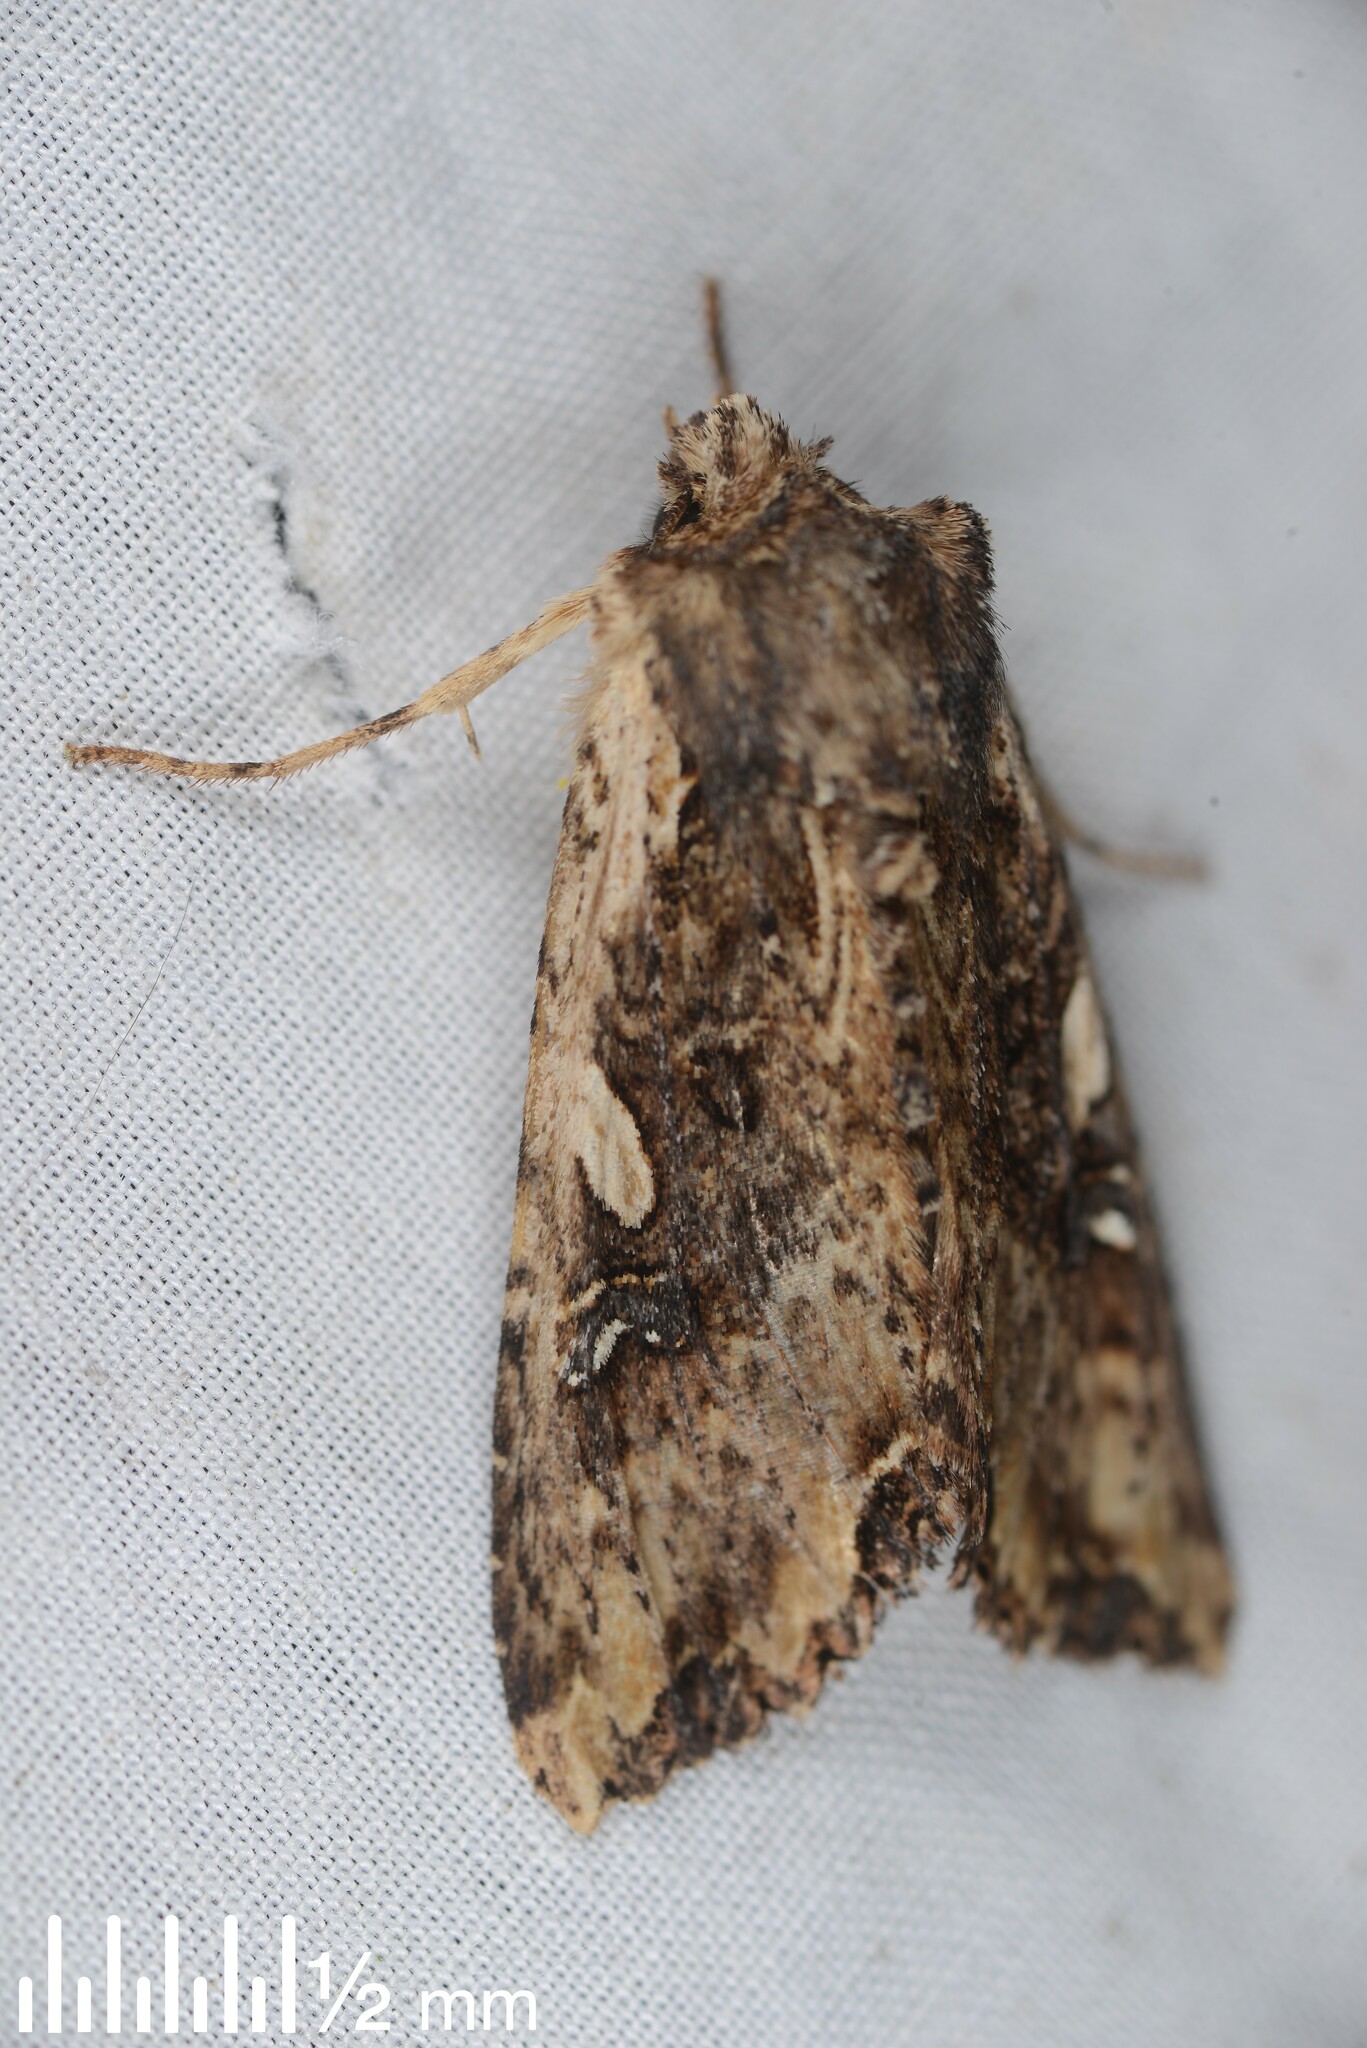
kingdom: Animalia
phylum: Arthropoda
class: Insecta
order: Lepidoptera
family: Noctuidae
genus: Meterana
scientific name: Meterana stipata
